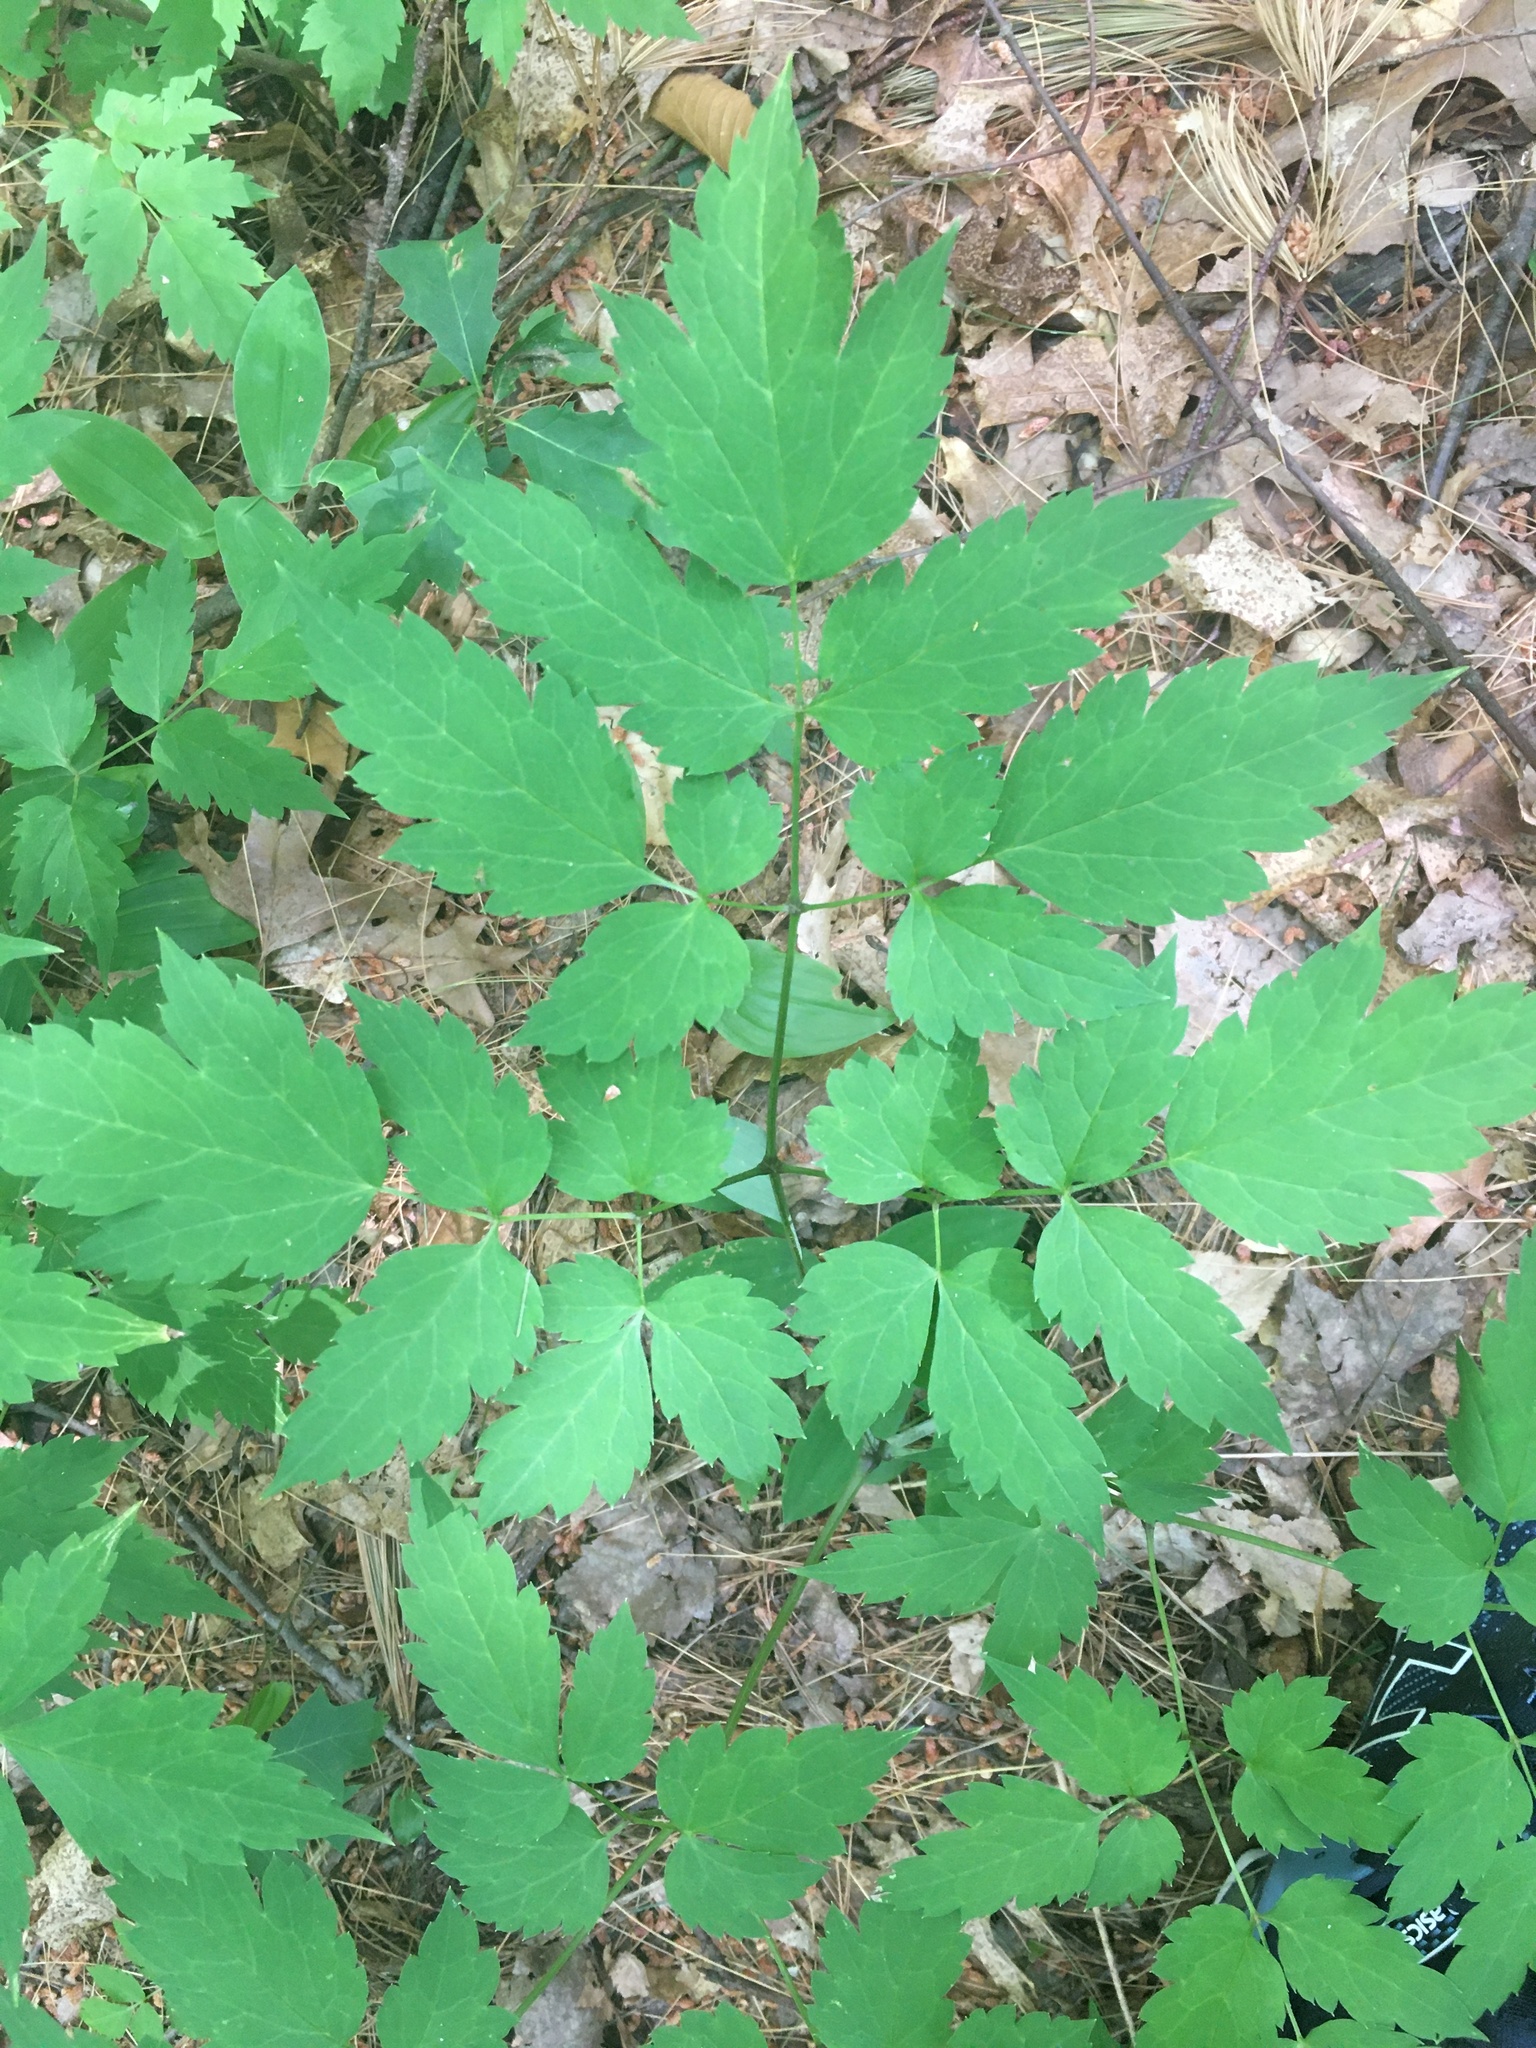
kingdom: Plantae
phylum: Tracheophyta
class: Magnoliopsida
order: Ranunculales
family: Ranunculaceae
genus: Actaea
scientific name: Actaea pachypoda
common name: Doll's-eyes
